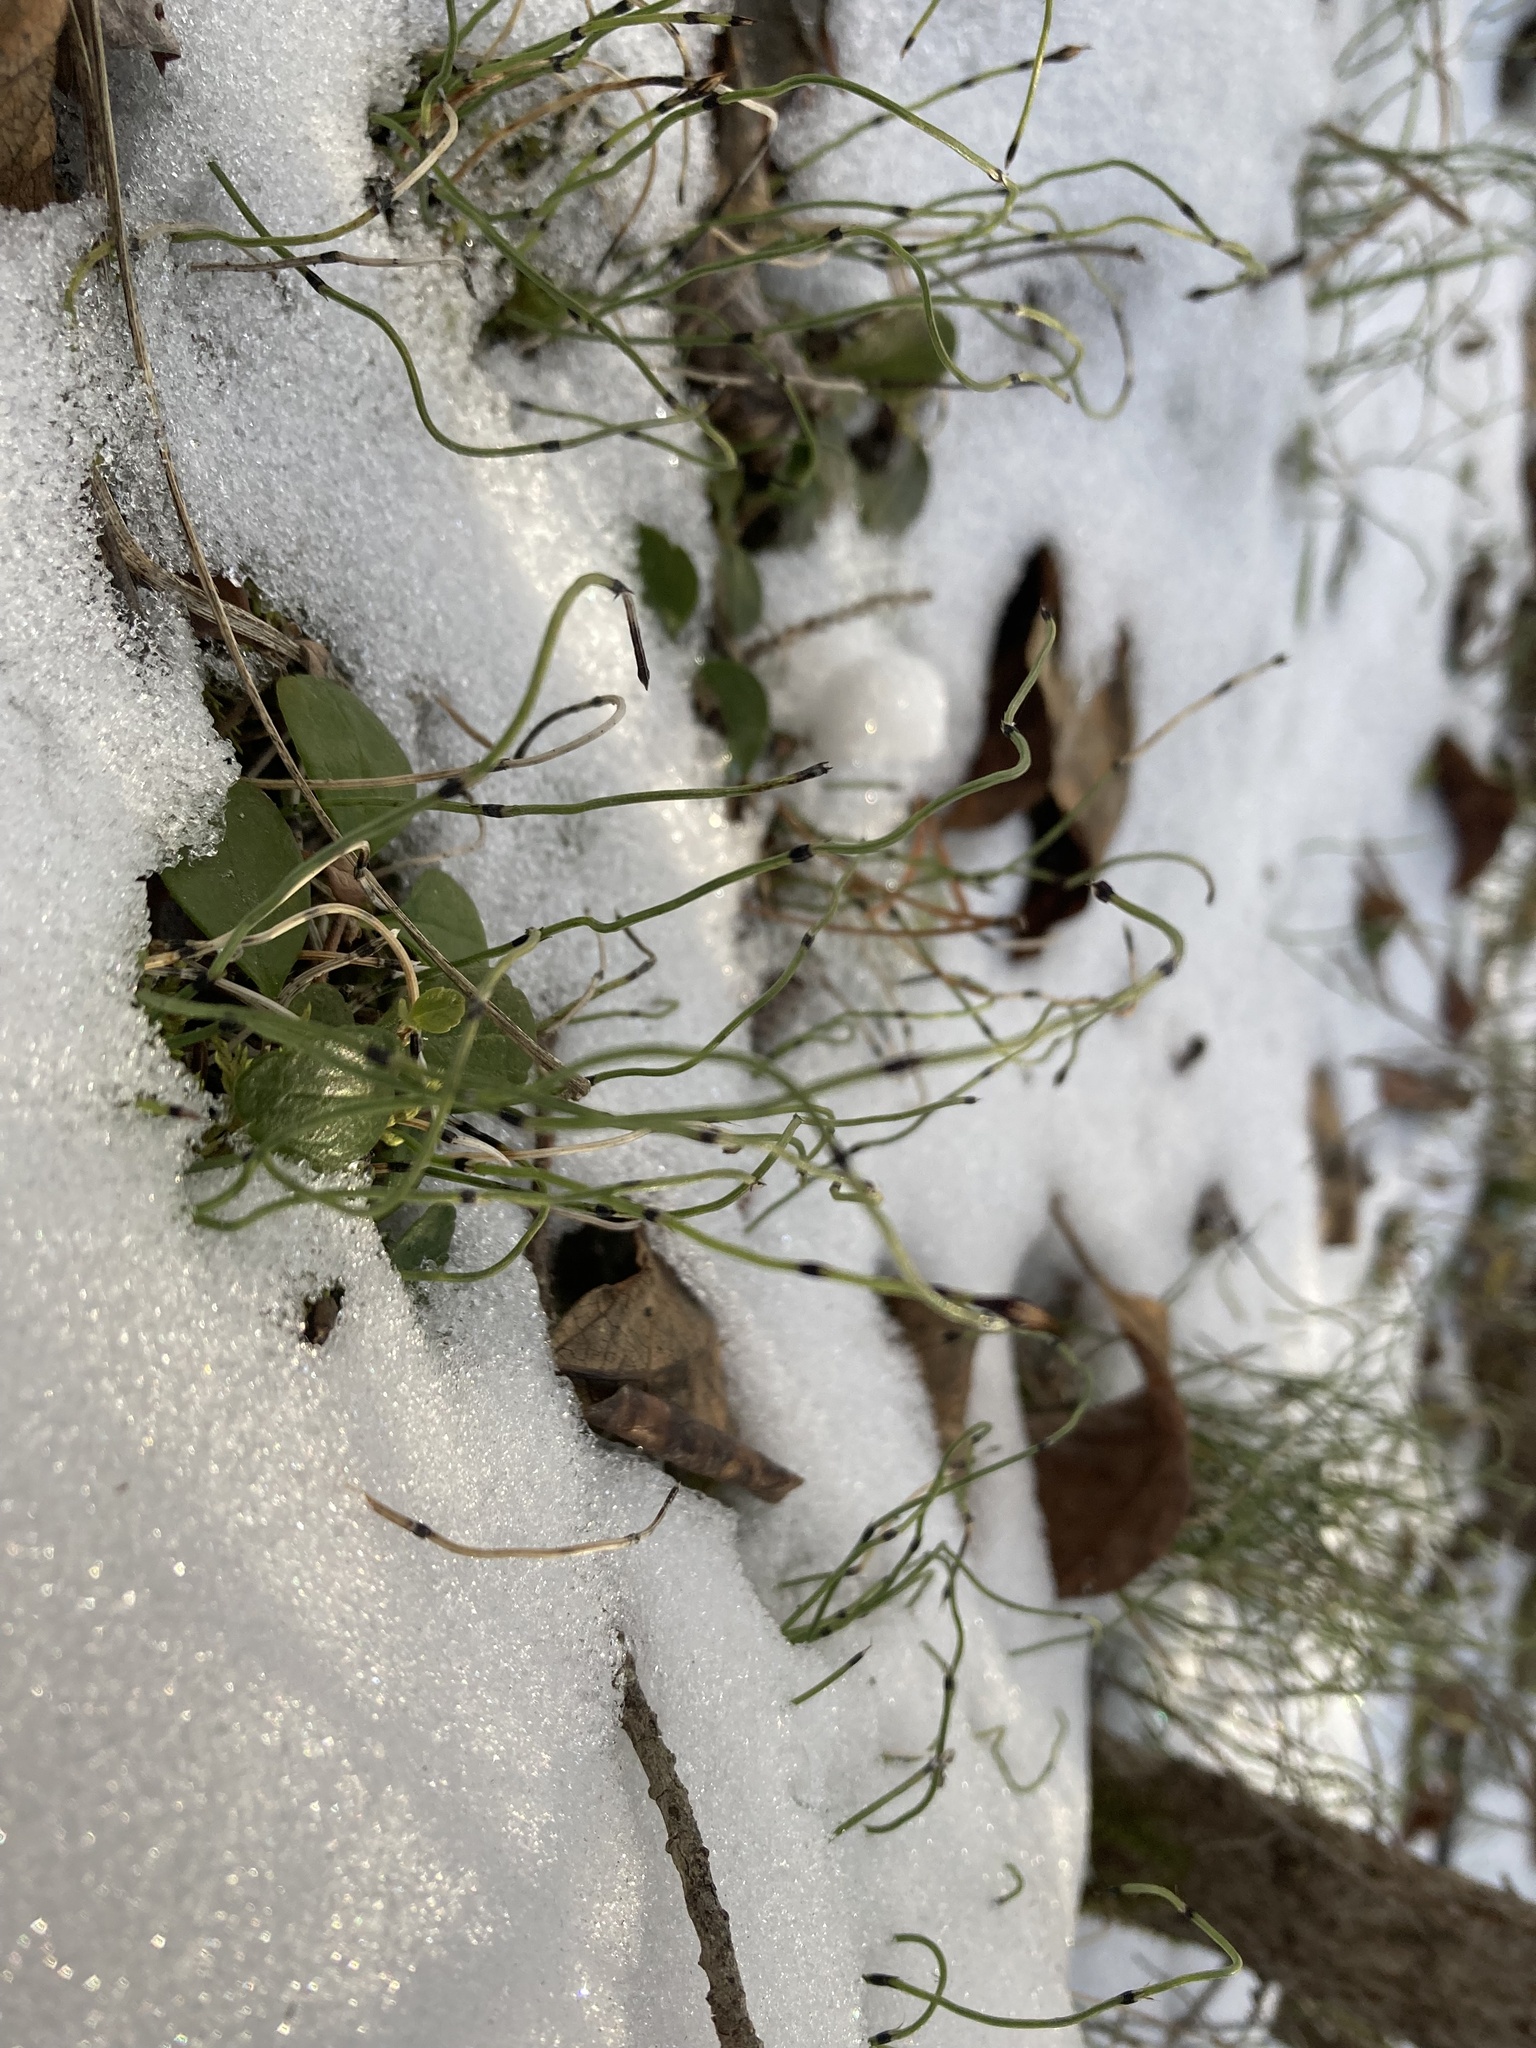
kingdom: Plantae
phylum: Tracheophyta
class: Polypodiopsida
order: Equisetales
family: Equisetaceae
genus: Equisetum
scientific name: Equisetum scirpoides
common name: Delicate horsetail
